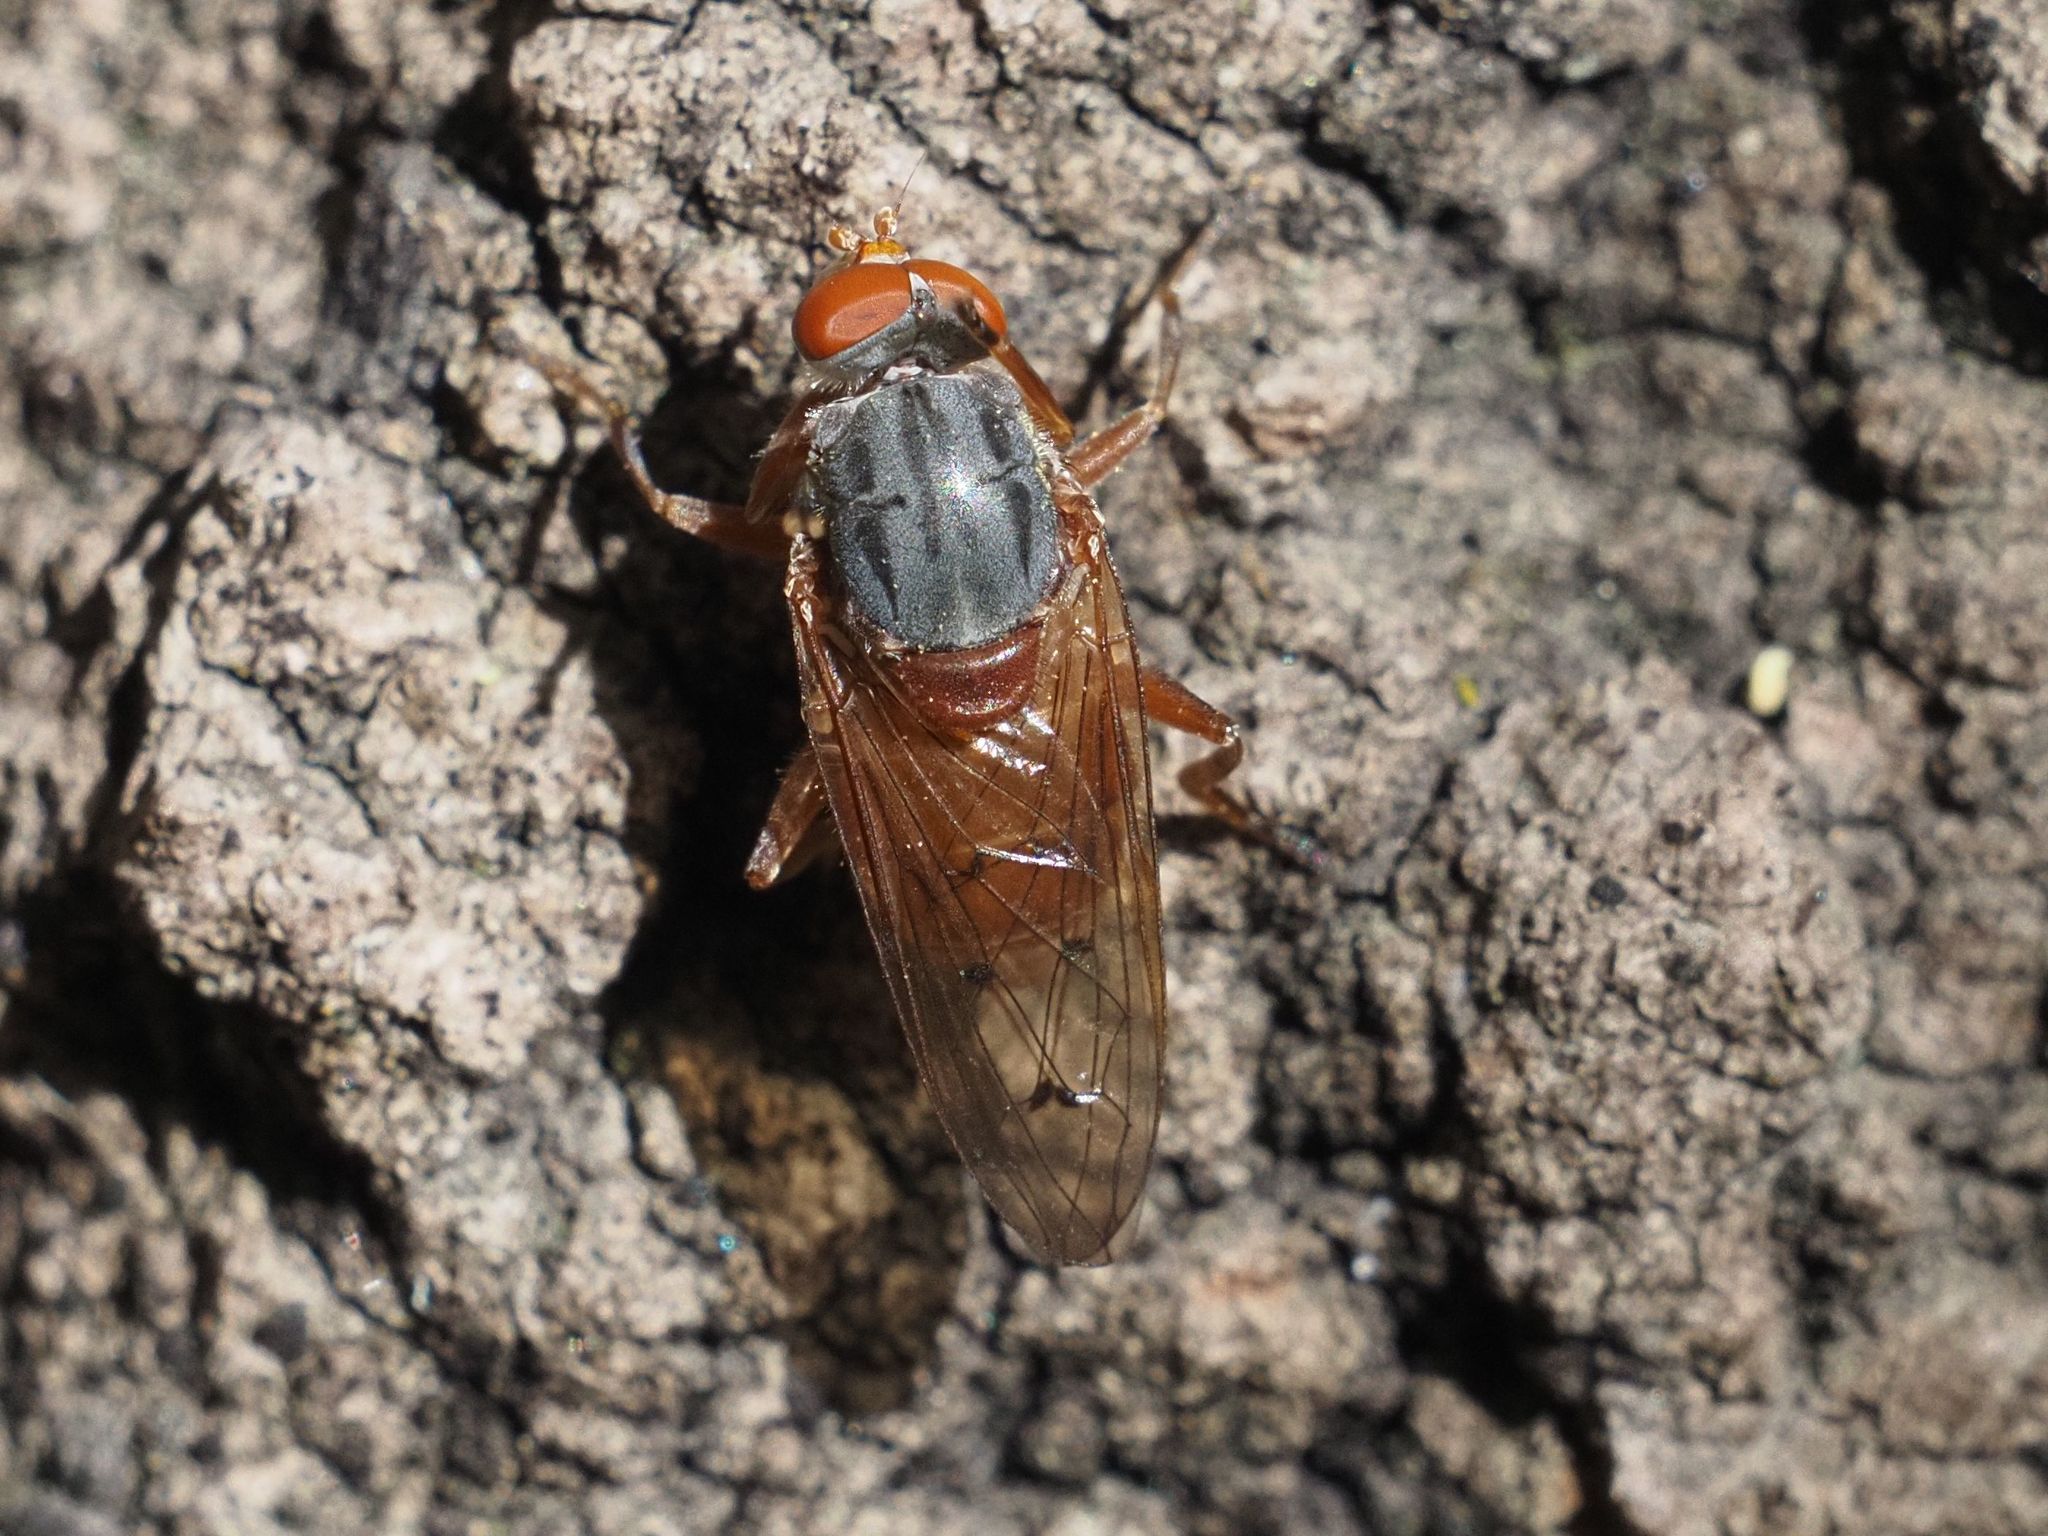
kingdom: Animalia
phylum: Arthropoda
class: Insecta
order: Diptera
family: Syrphidae
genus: Brachyopa
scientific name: Brachyopa maculipennis
